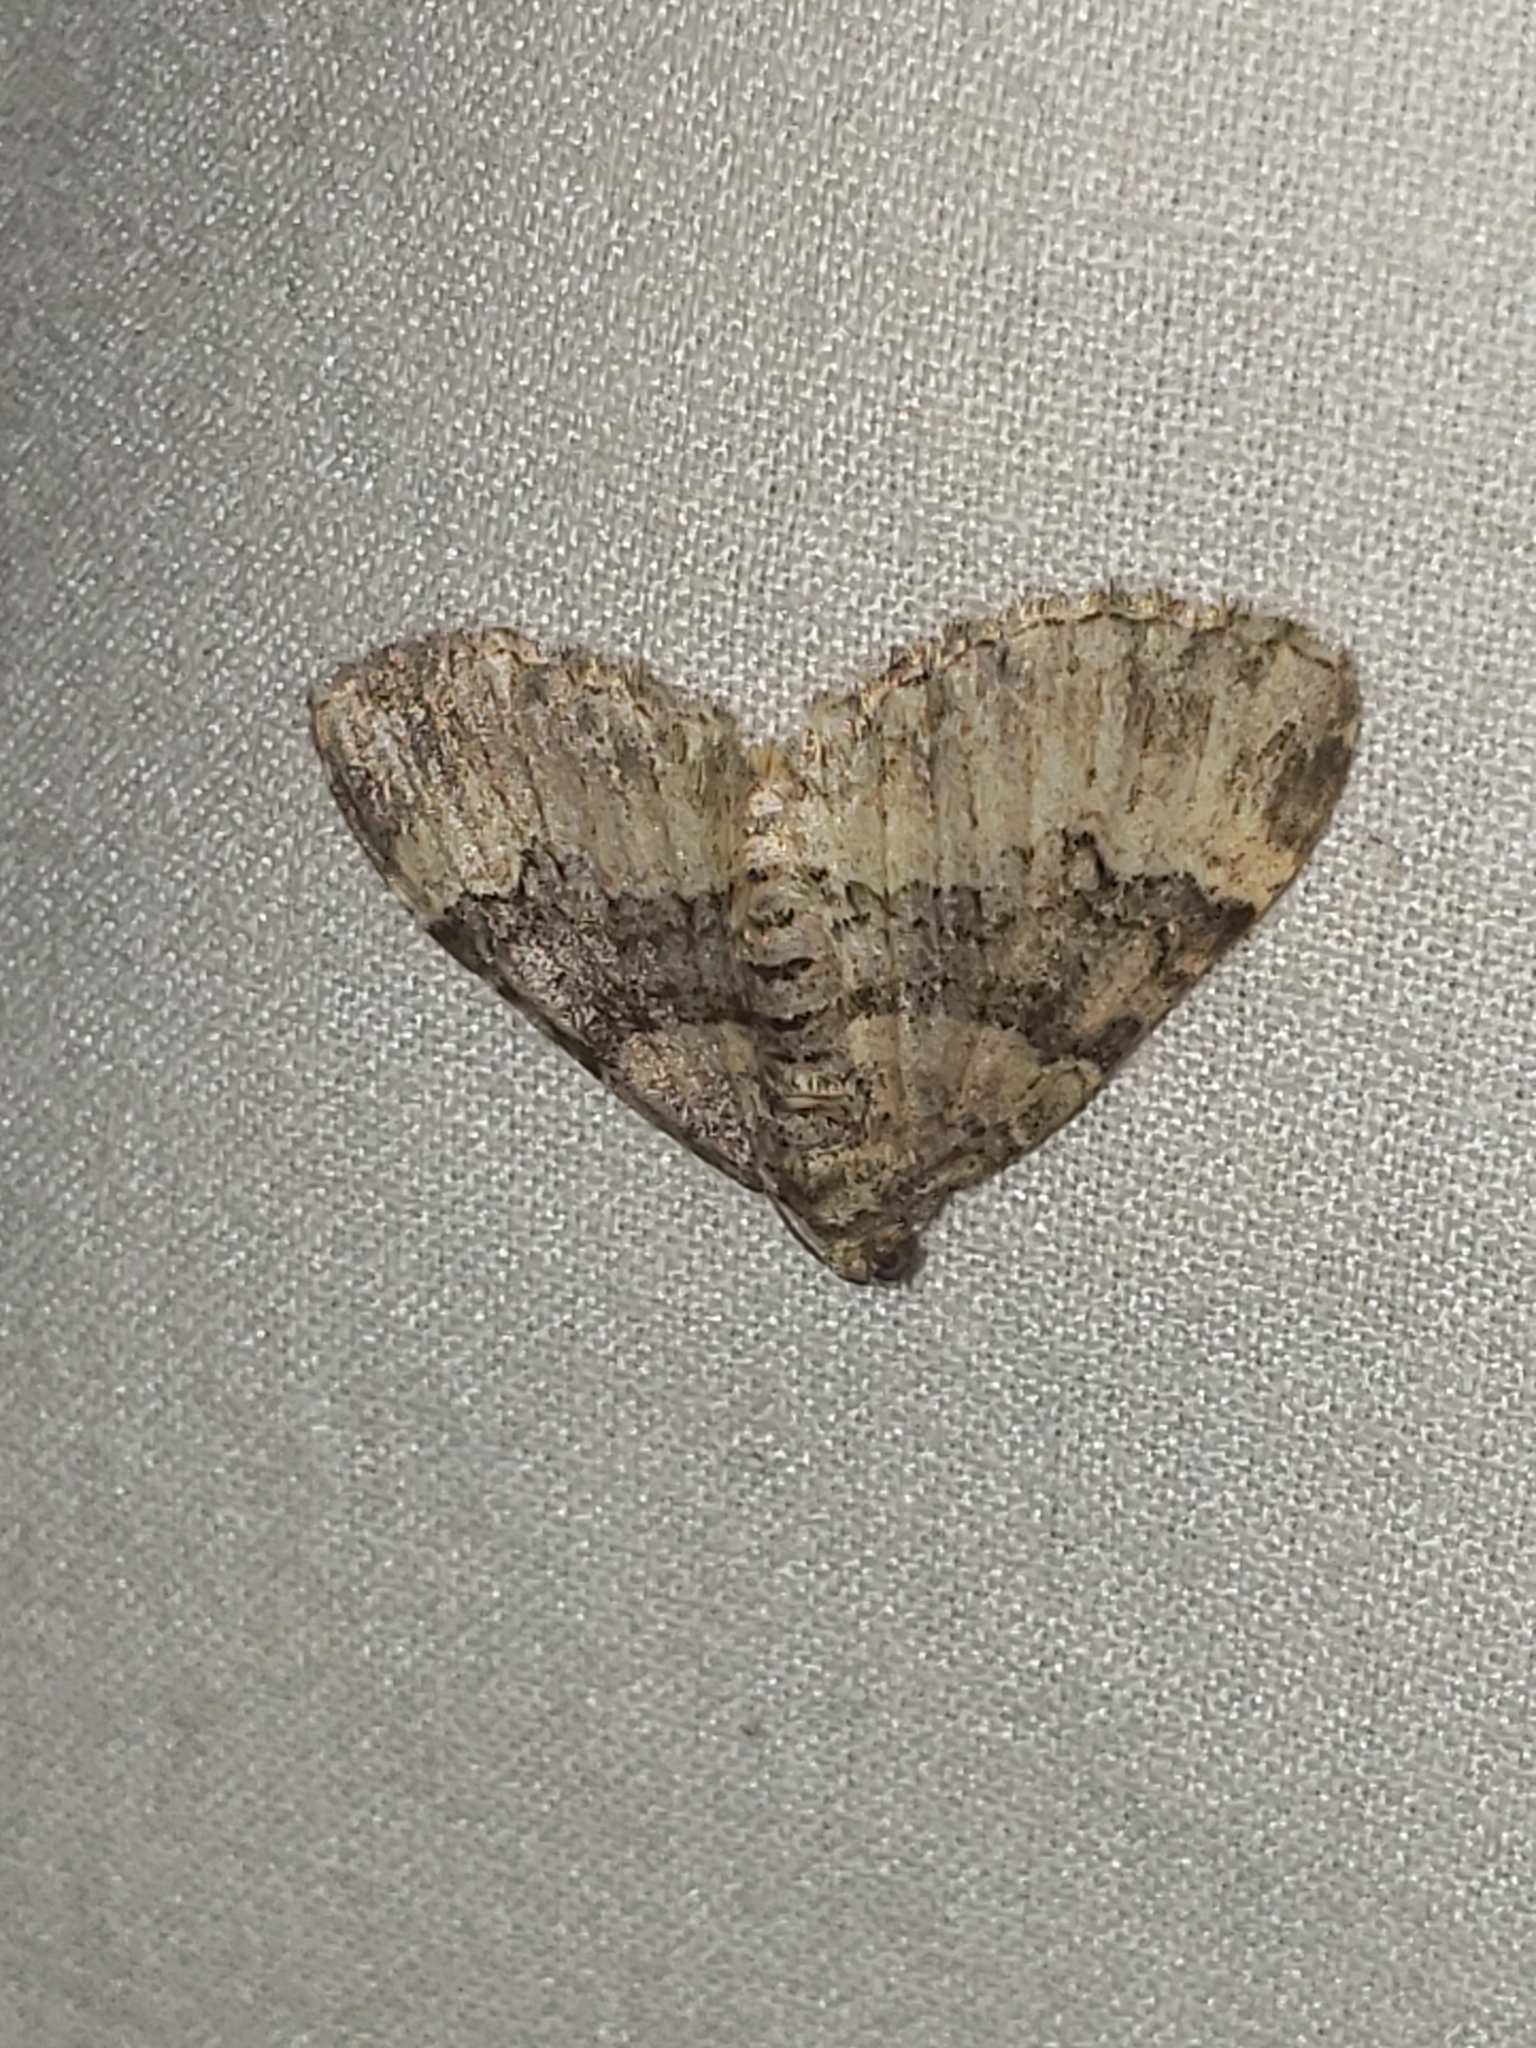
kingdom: Animalia
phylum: Arthropoda
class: Insecta
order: Lepidoptera
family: Geometridae
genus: Xanthorhoe
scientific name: Xanthorhoe lacustrata
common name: Toothed brown carpet
